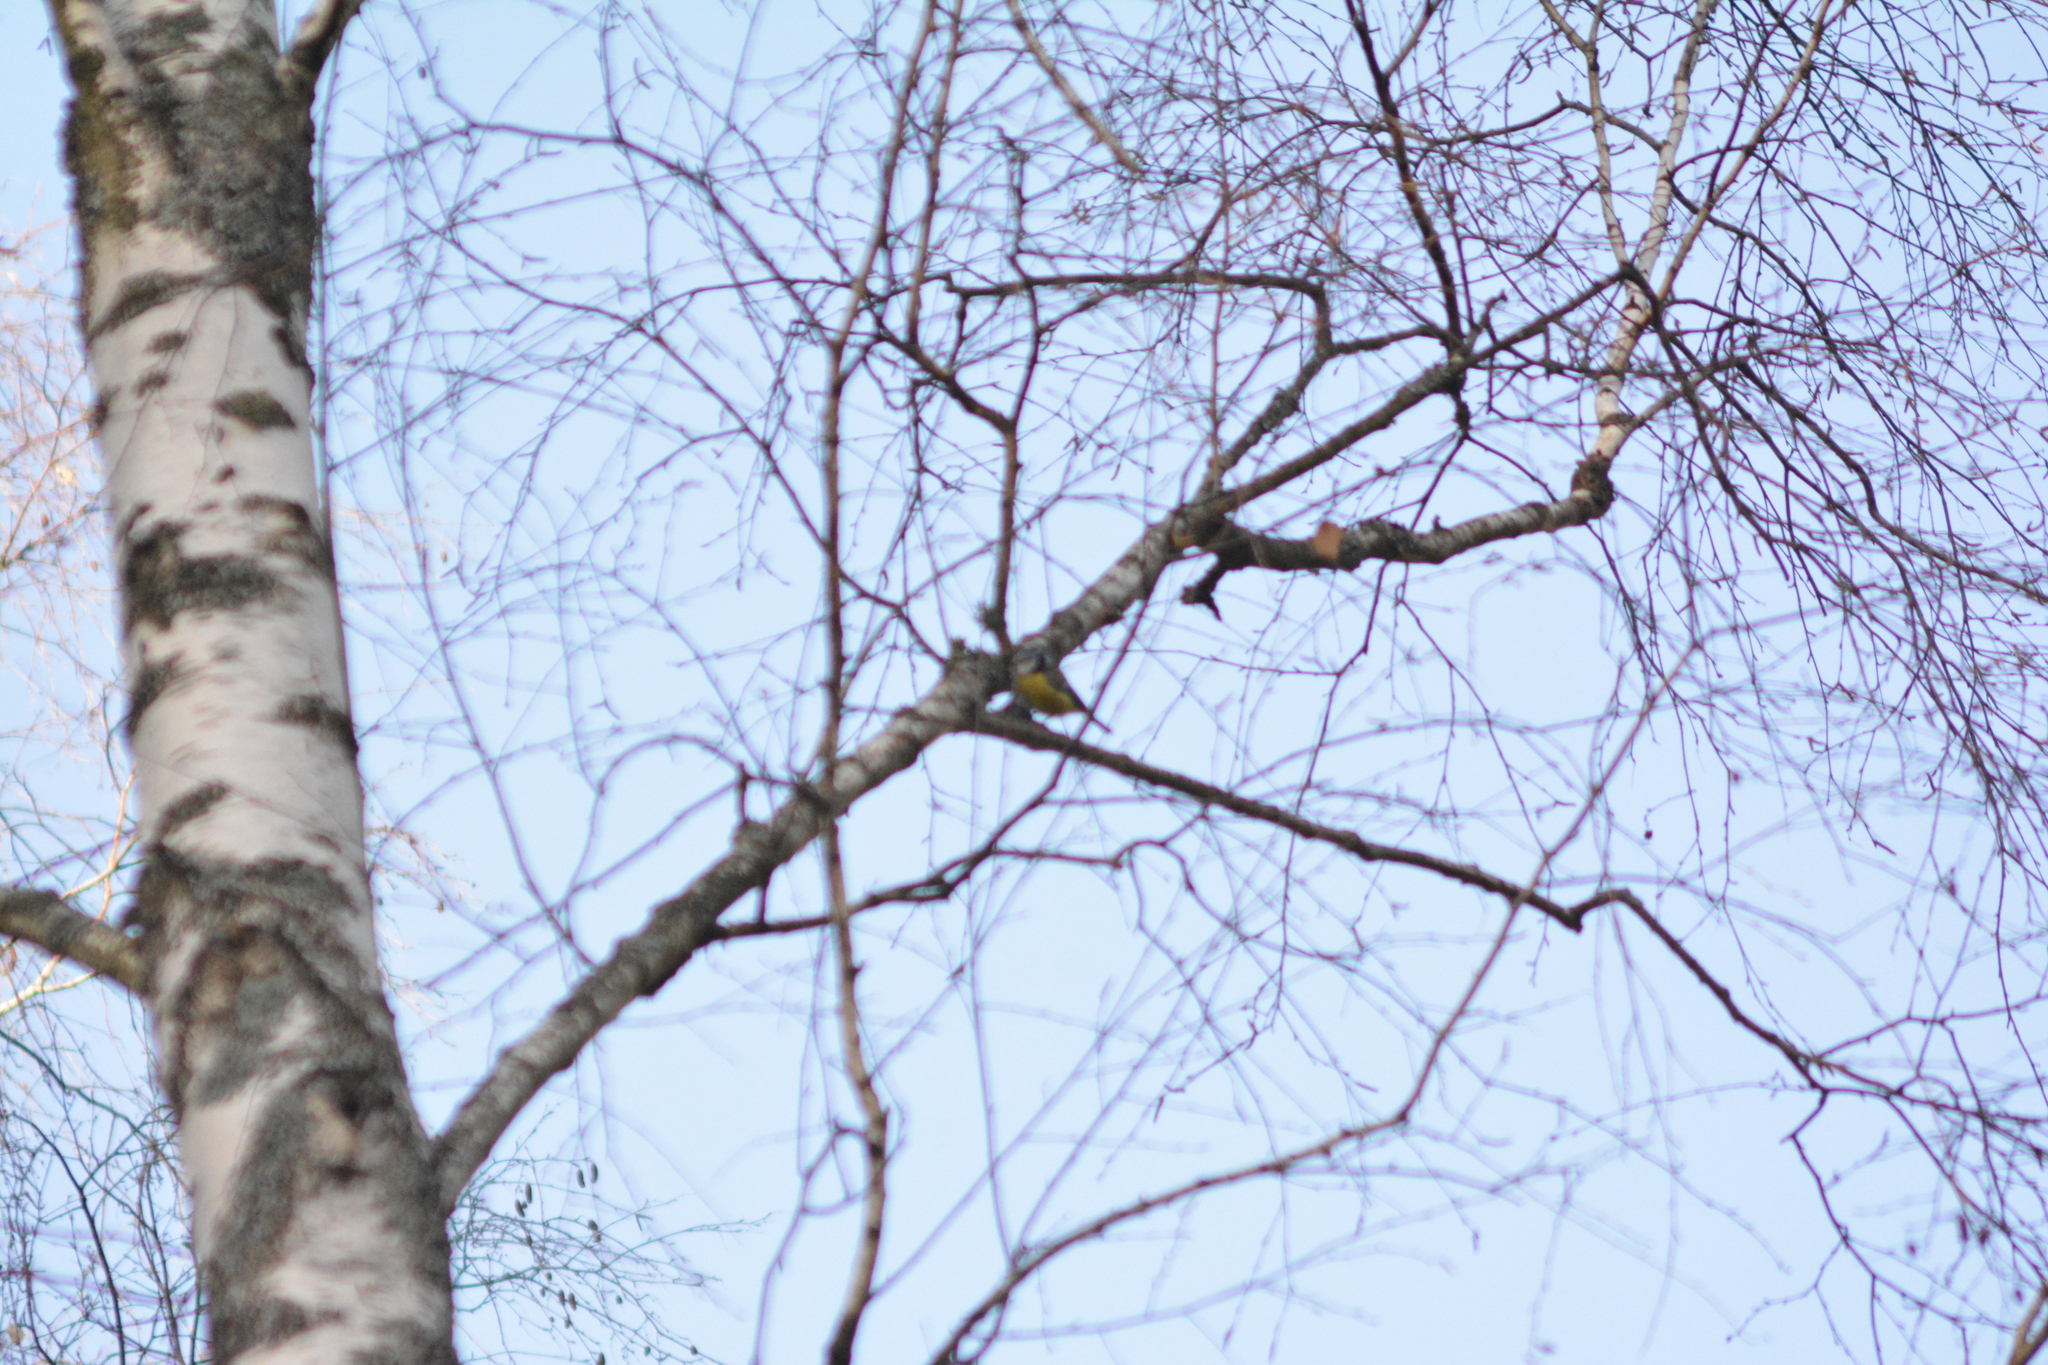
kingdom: Animalia
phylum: Chordata
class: Aves
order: Passeriformes
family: Paridae
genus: Cyanistes
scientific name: Cyanistes caeruleus
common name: Eurasian blue tit
